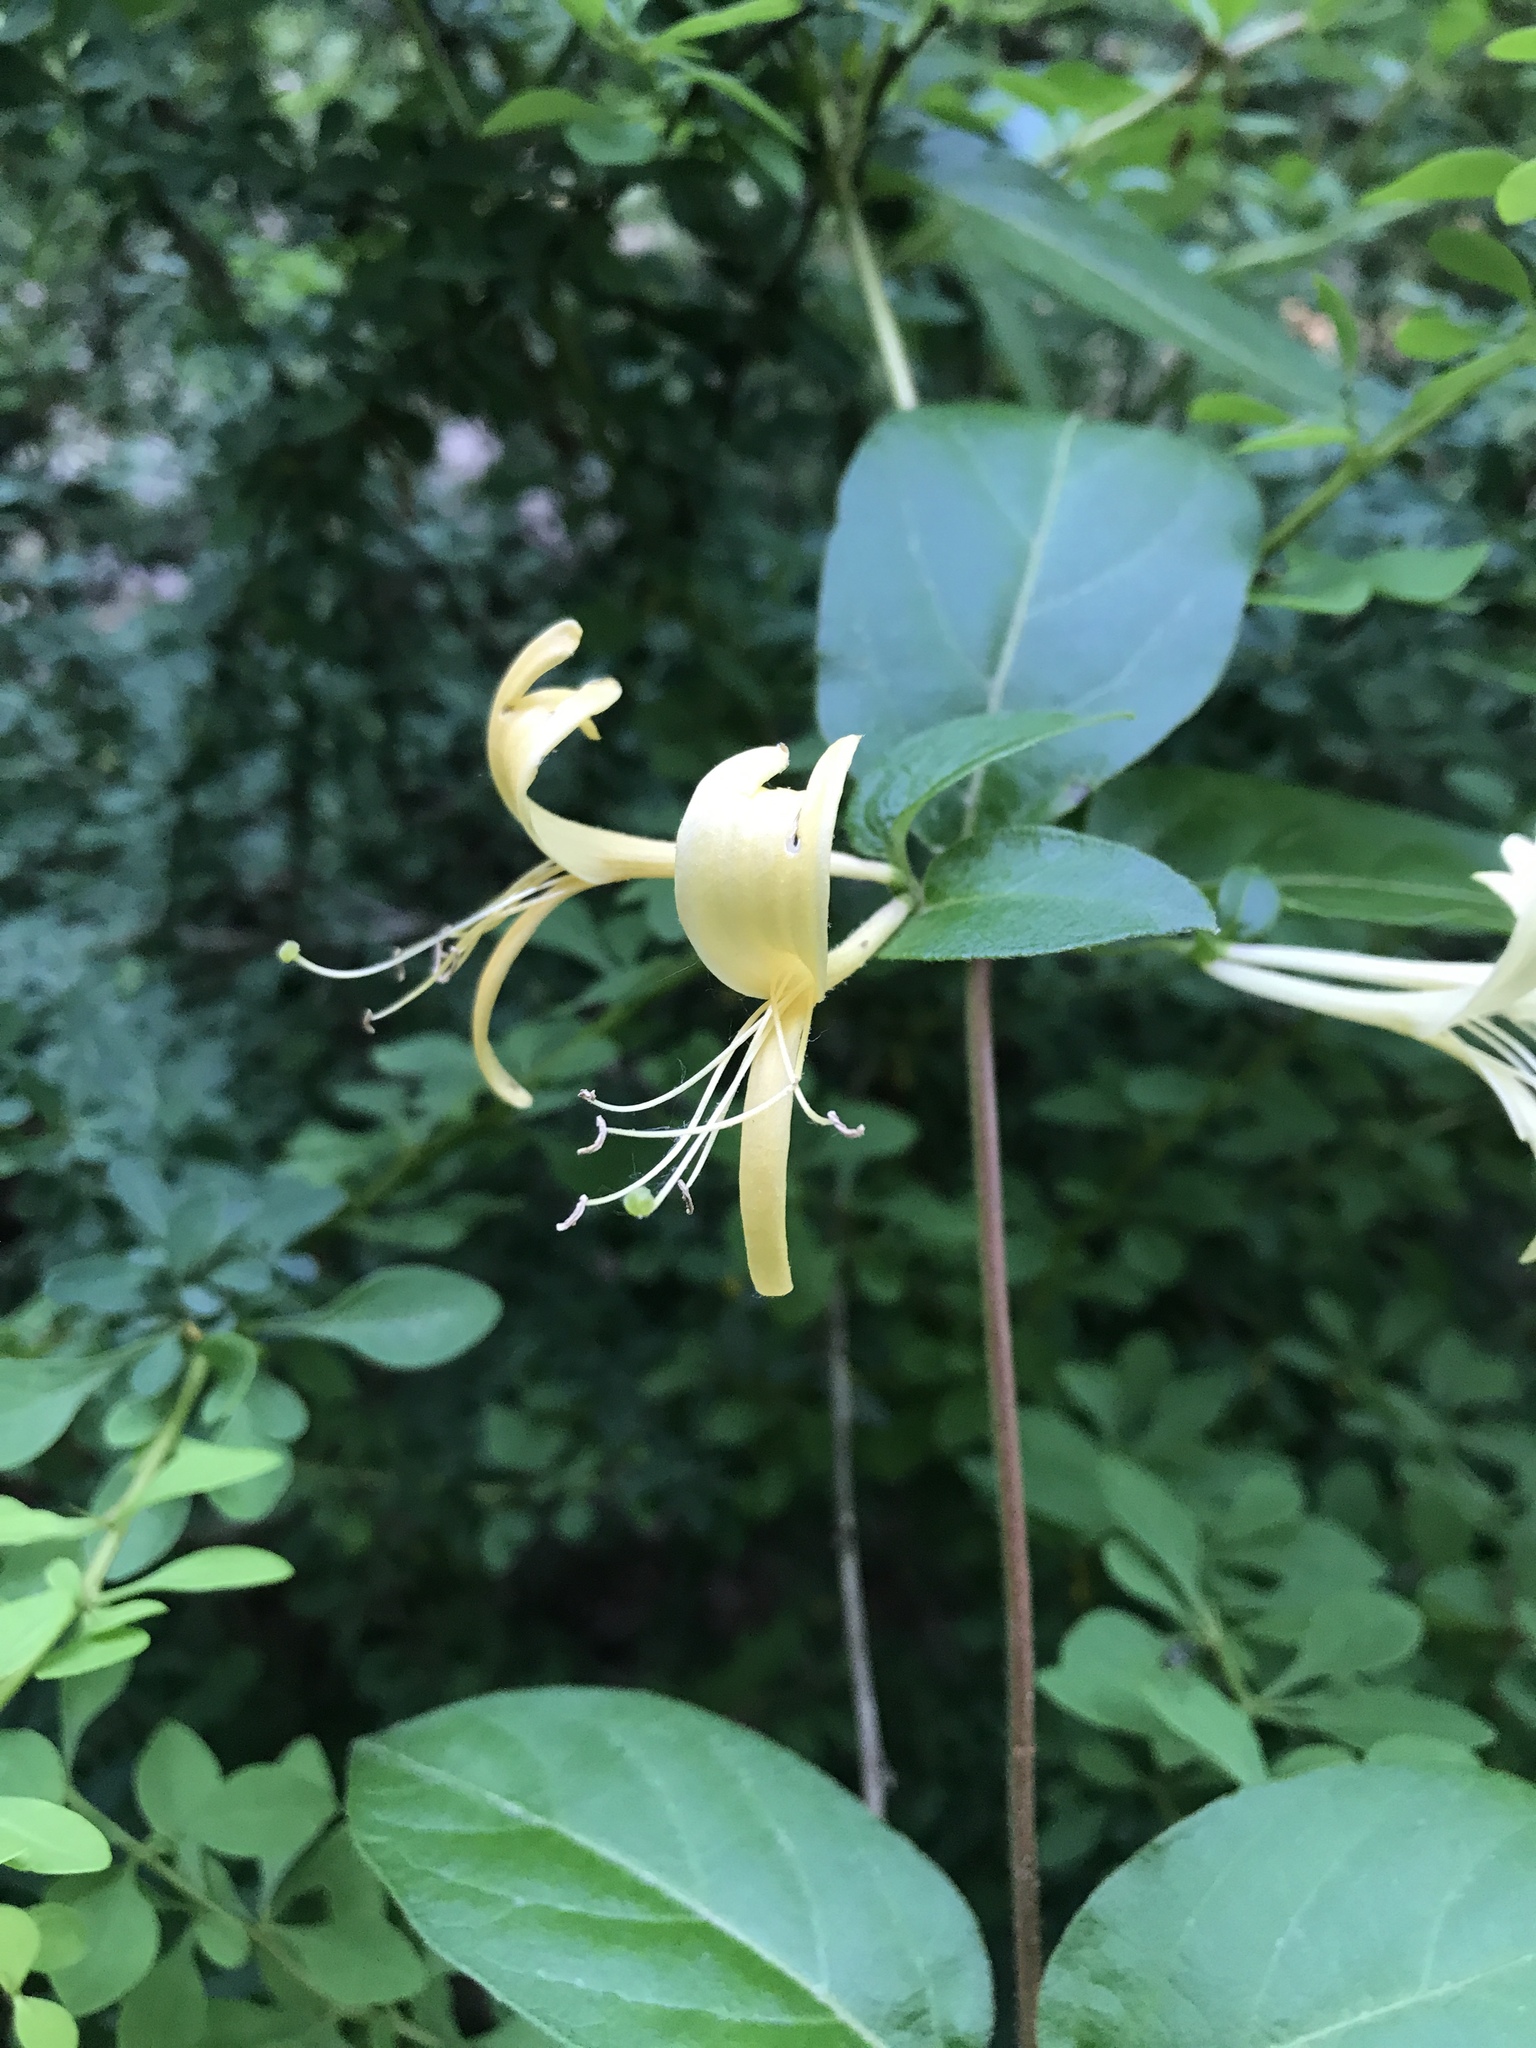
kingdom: Plantae
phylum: Tracheophyta
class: Magnoliopsida
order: Dipsacales
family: Caprifoliaceae
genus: Lonicera
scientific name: Lonicera japonica
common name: Japanese honeysuckle
